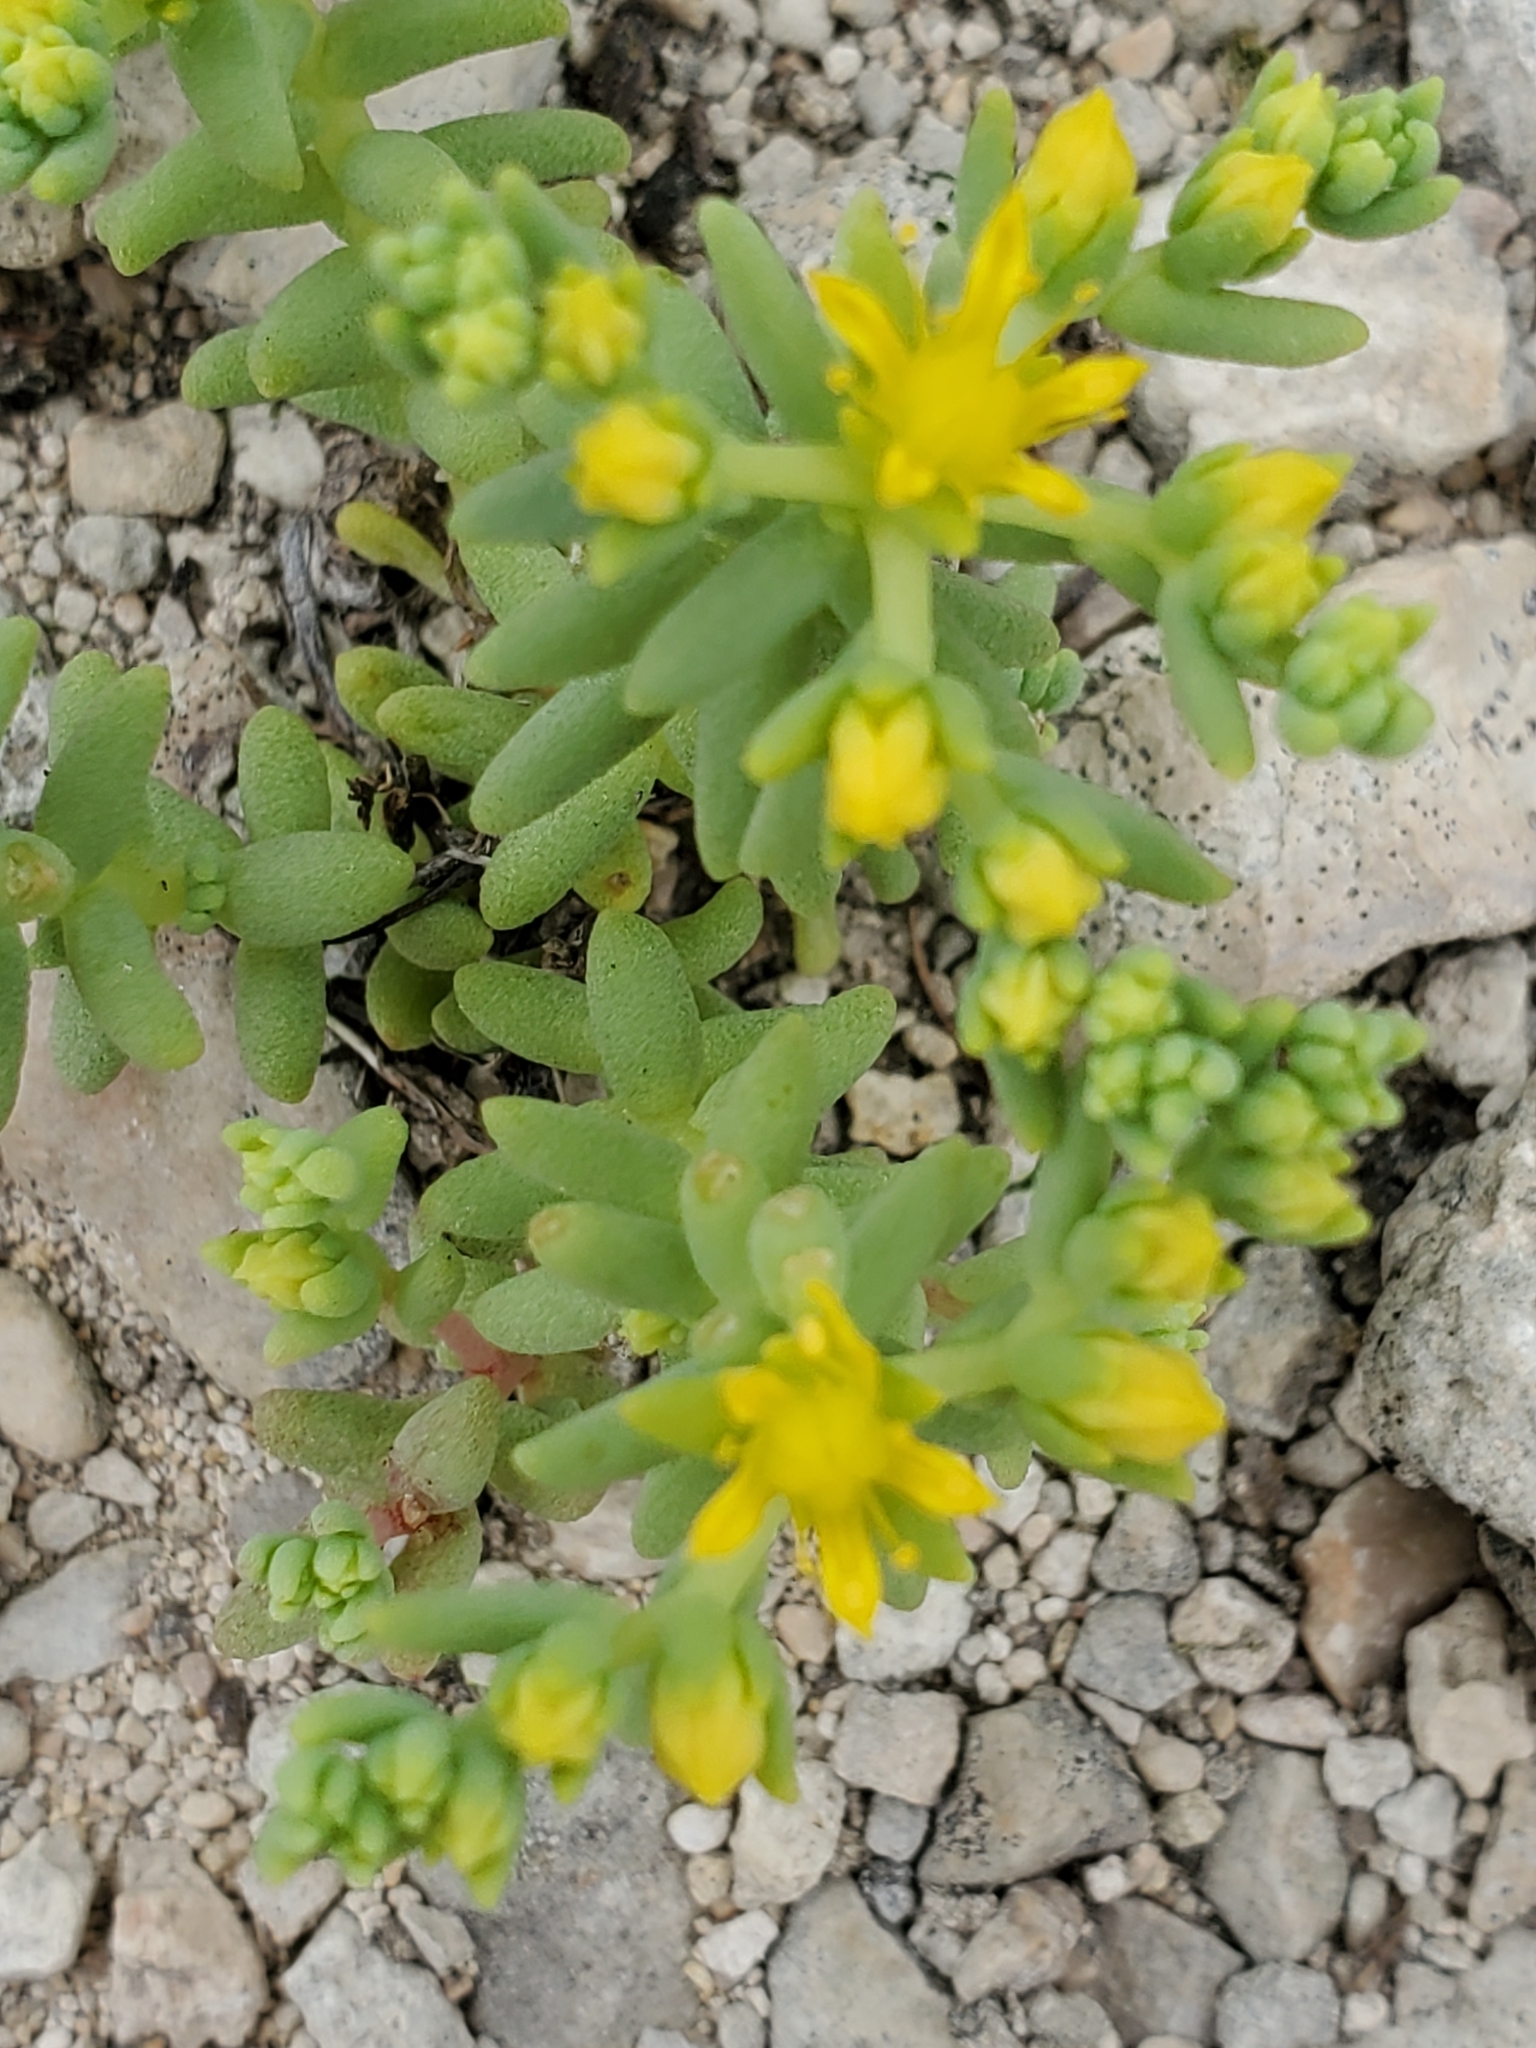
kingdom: Plantae
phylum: Tracheophyta
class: Magnoliopsida
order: Saxifragales
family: Crassulaceae
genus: Sedum
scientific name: Sedum nuttallii
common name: Yellow stonecrop
